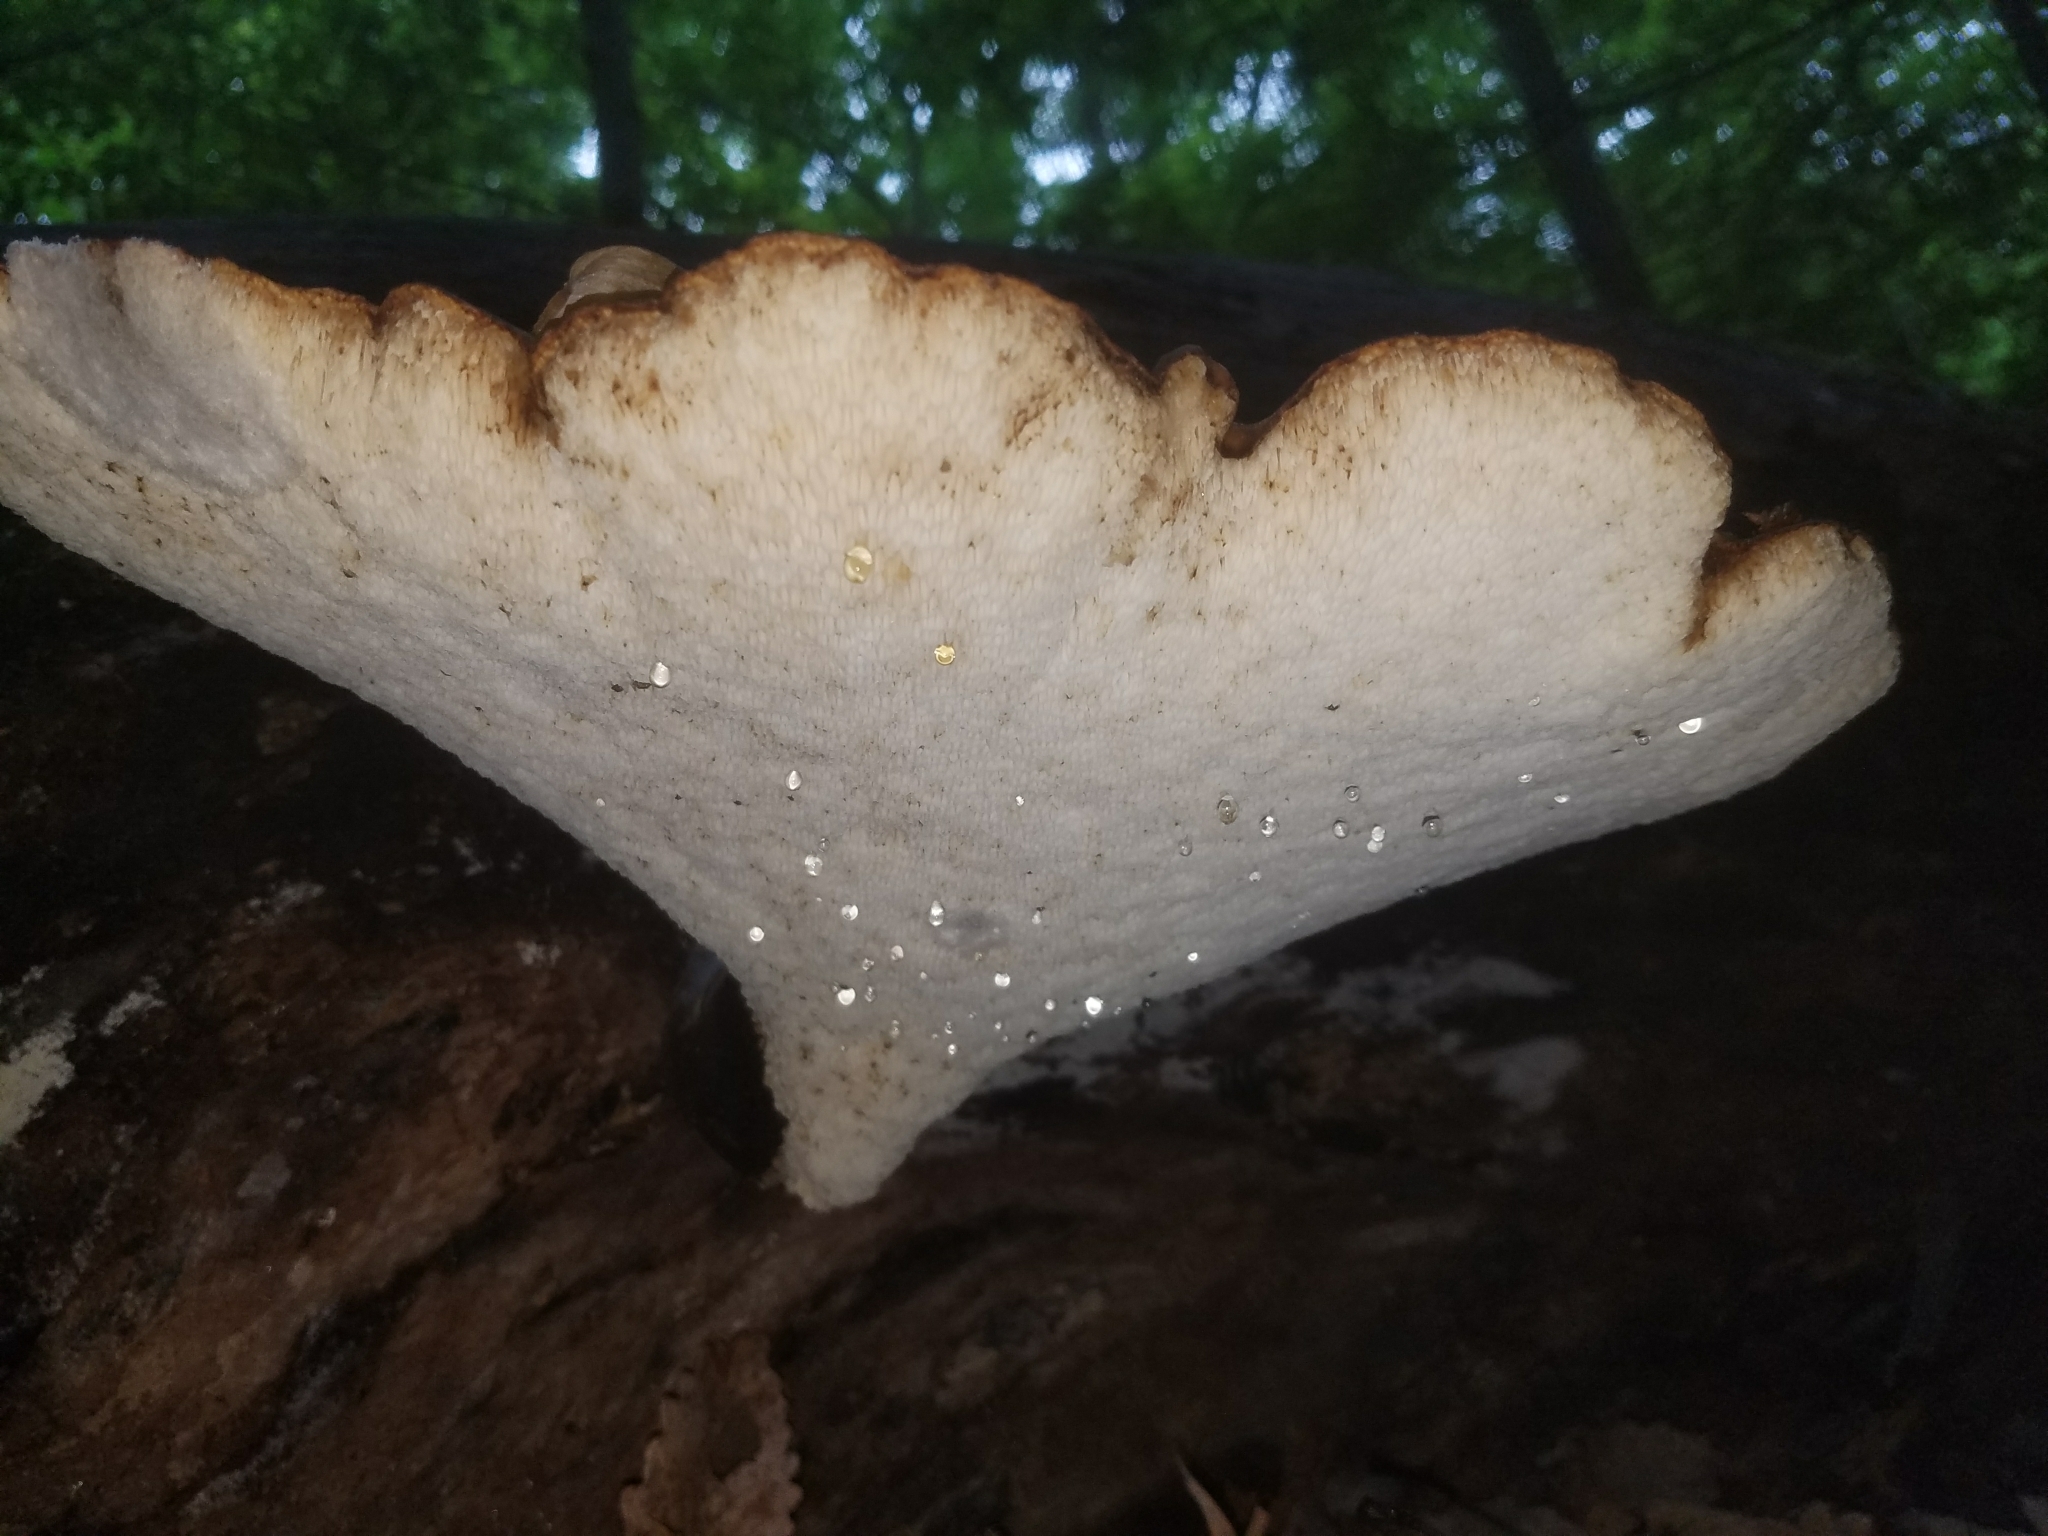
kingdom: Fungi
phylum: Basidiomycota
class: Agaricomycetes
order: Polyporales
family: Polyporaceae
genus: Cerioporus
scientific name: Cerioporus squamosus
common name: Dryad's saddle
